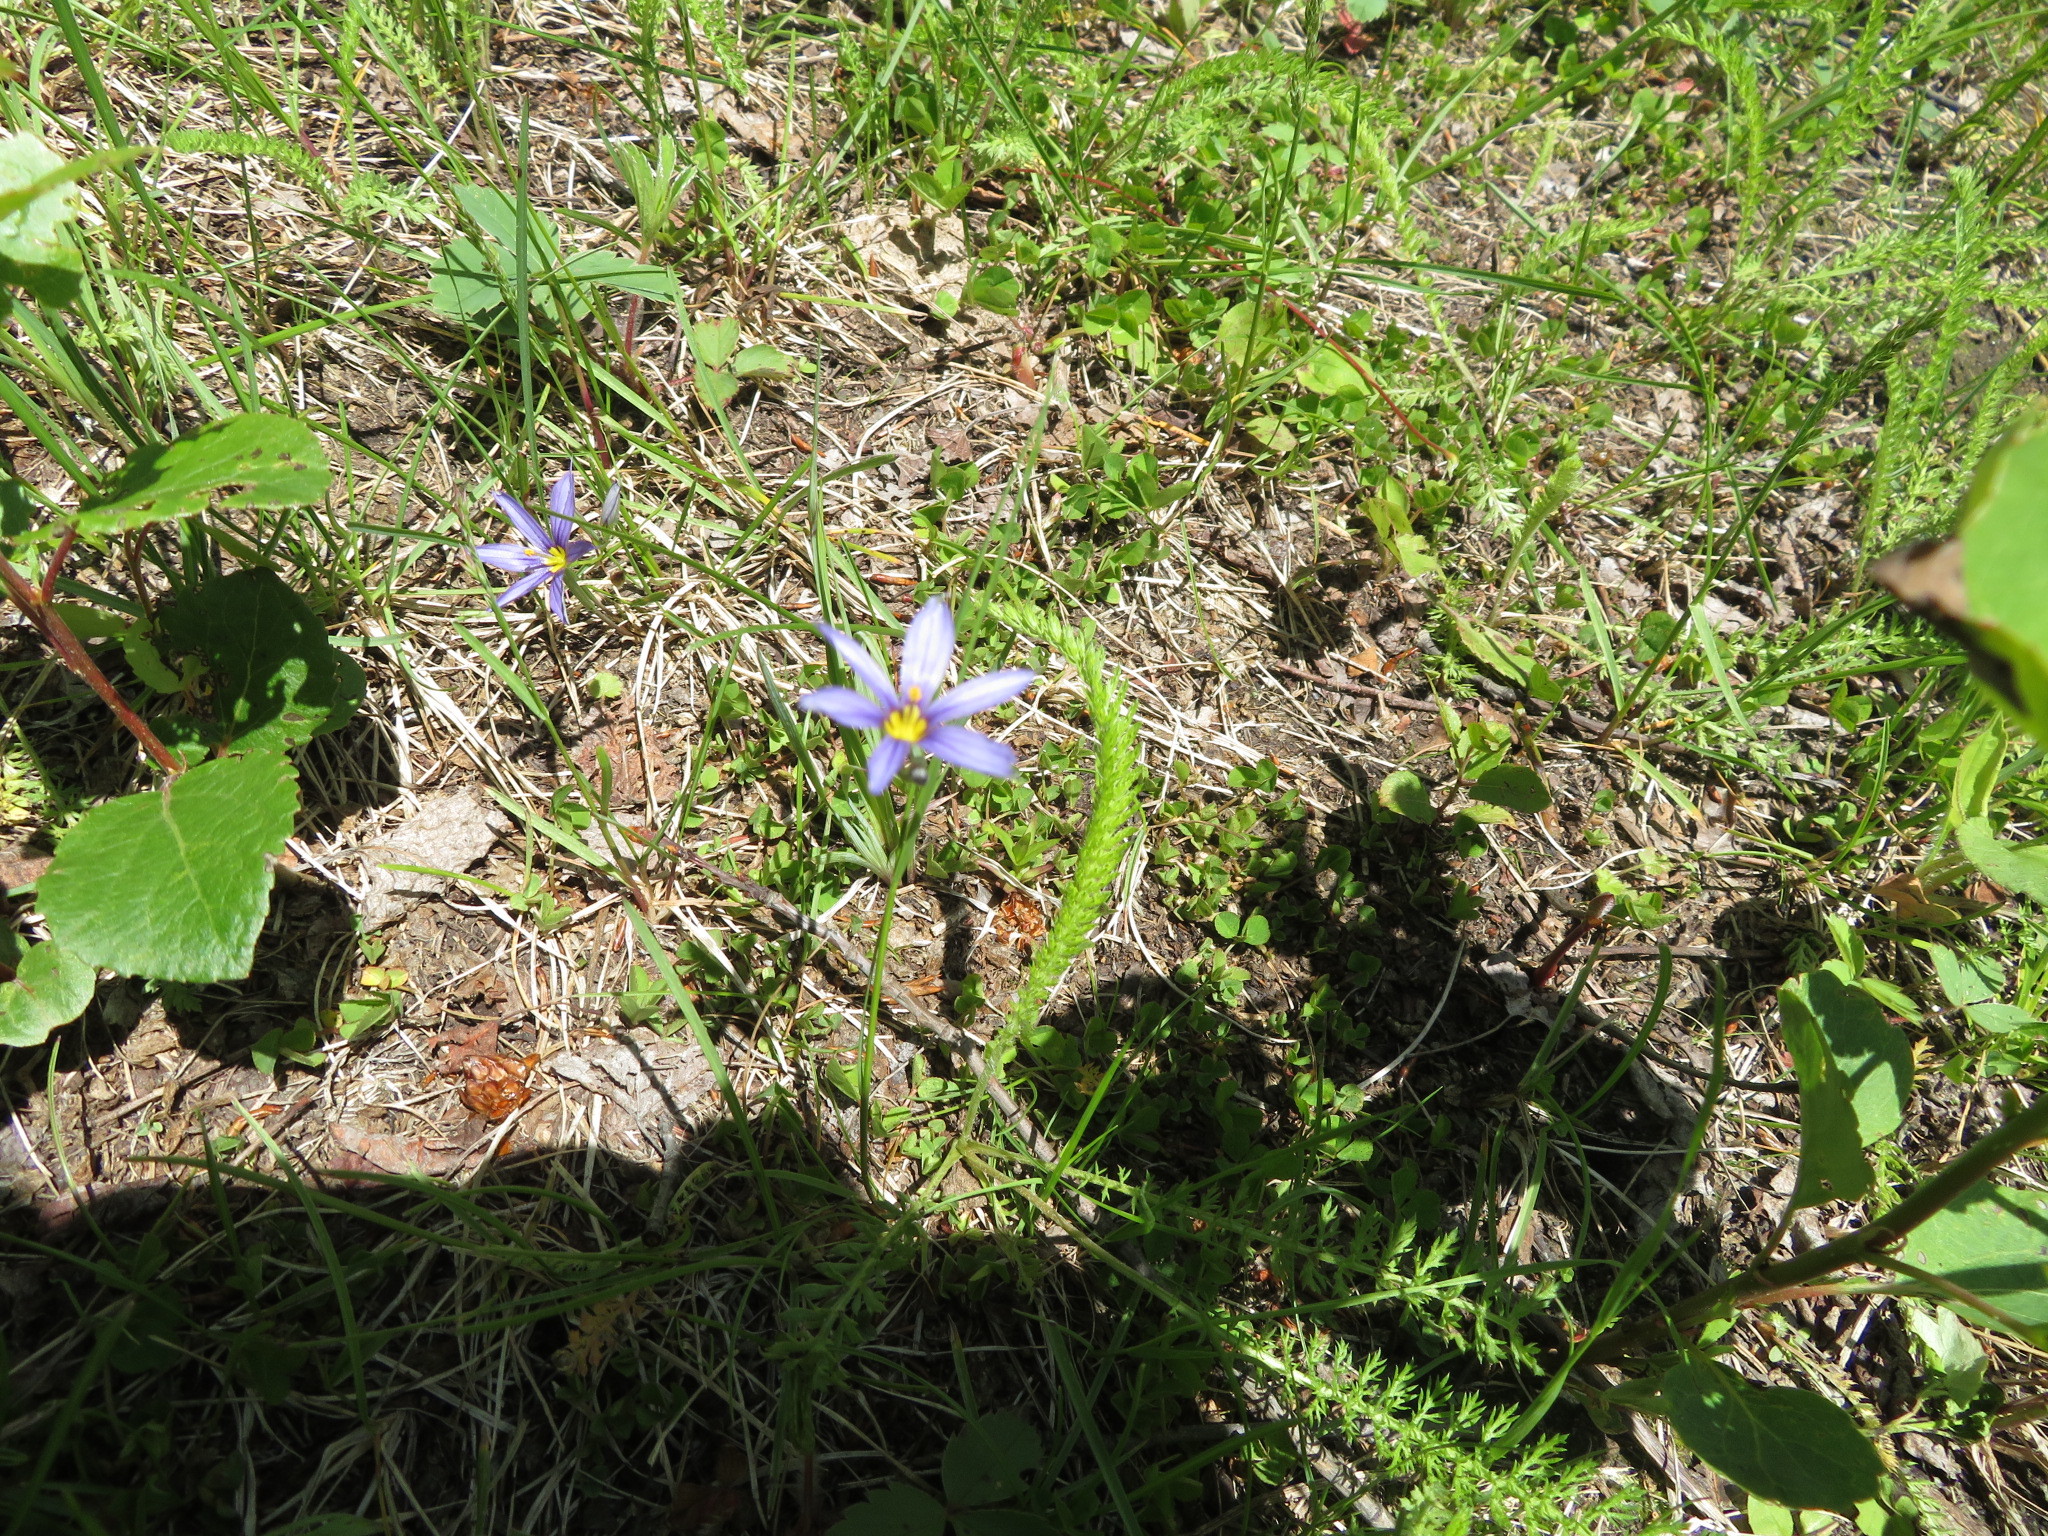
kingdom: Plantae
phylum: Tracheophyta
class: Liliopsida
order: Asparagales
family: Iridaceae
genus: Sisyrinchium
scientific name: Sisyrinchium montanum
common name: American blue-eyed-grass
